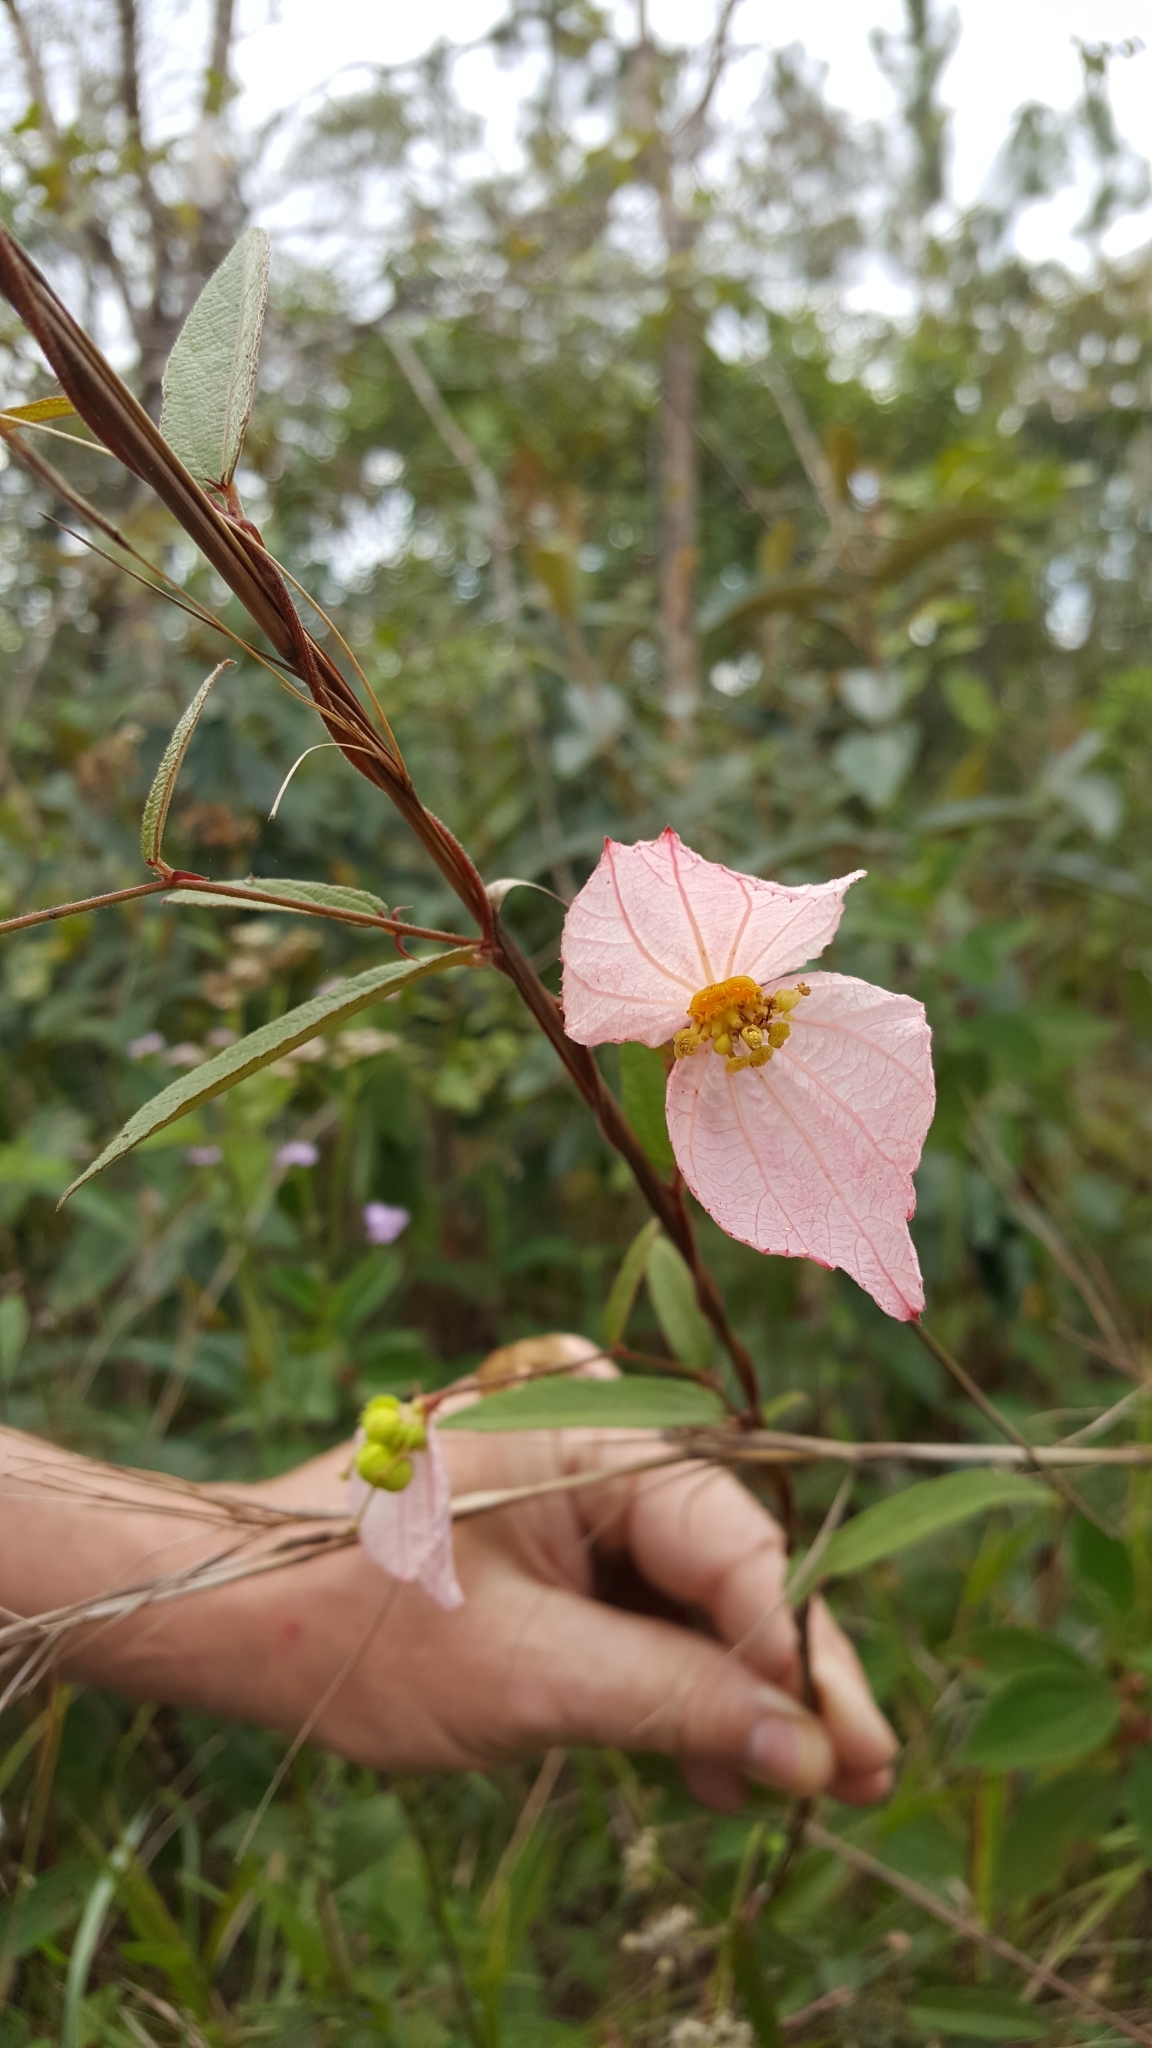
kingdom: Plantae
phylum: Tracheophyta
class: Magnoliopsida
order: Malpighiales
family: Euphorbiaceae
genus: Dalechampia
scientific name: Dalechampia schippii
